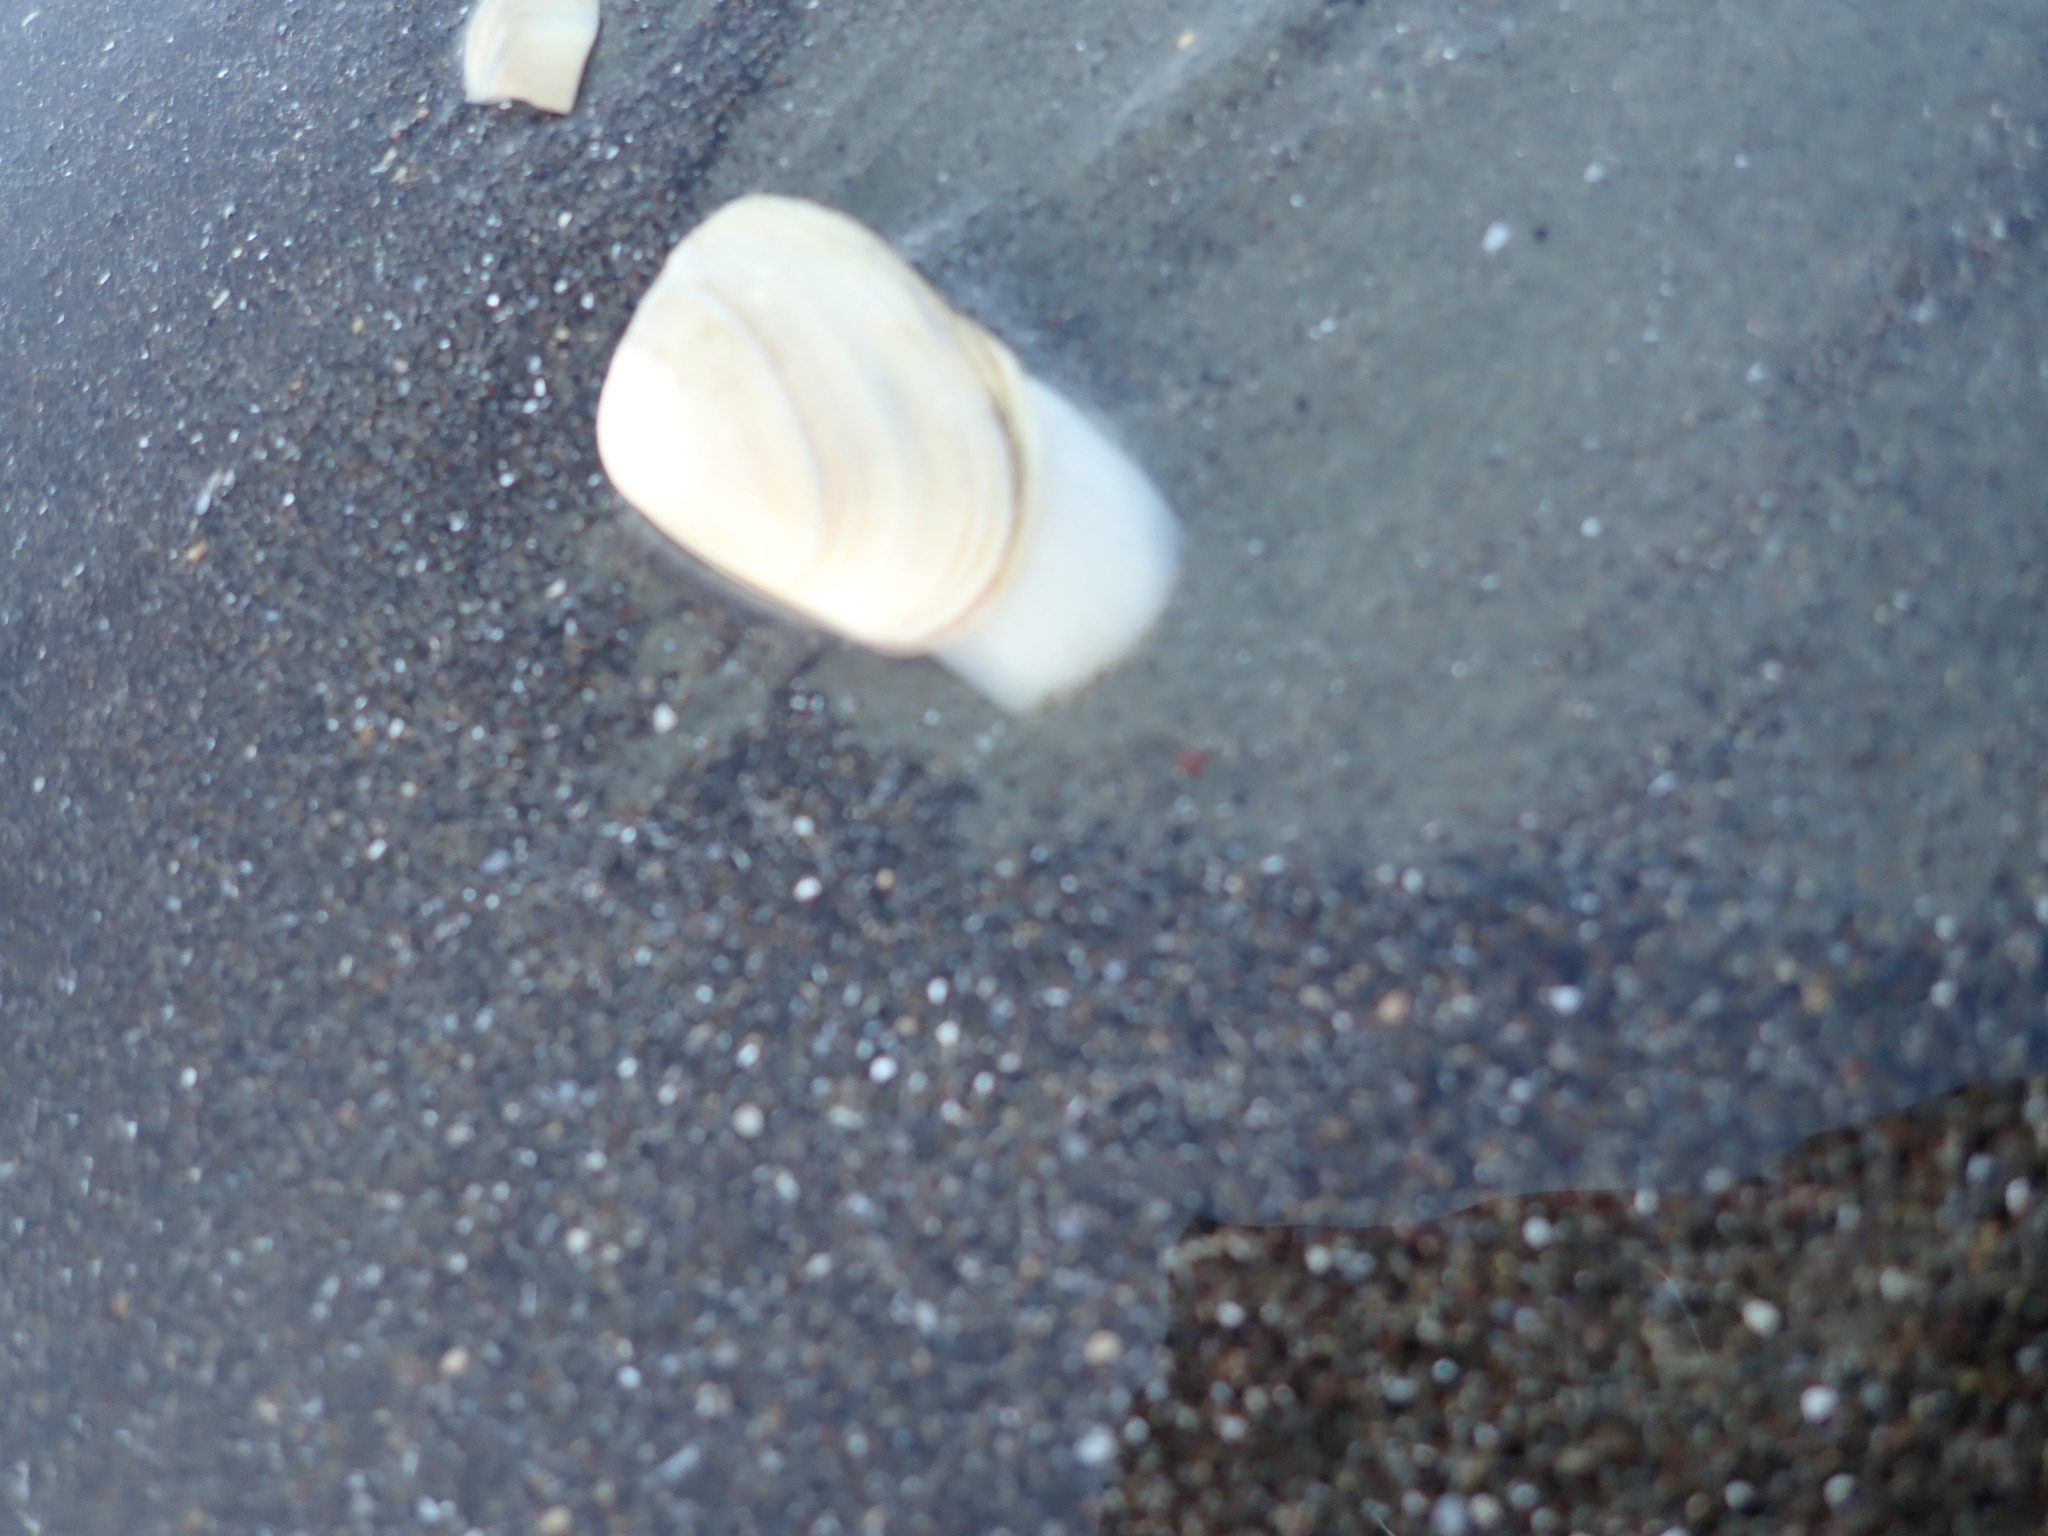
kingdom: Animalia
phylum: Mollusca
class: Bivalvia
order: Venerida
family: Mesodesmatidae
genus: Paphies
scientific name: Paphies subtriangulata
